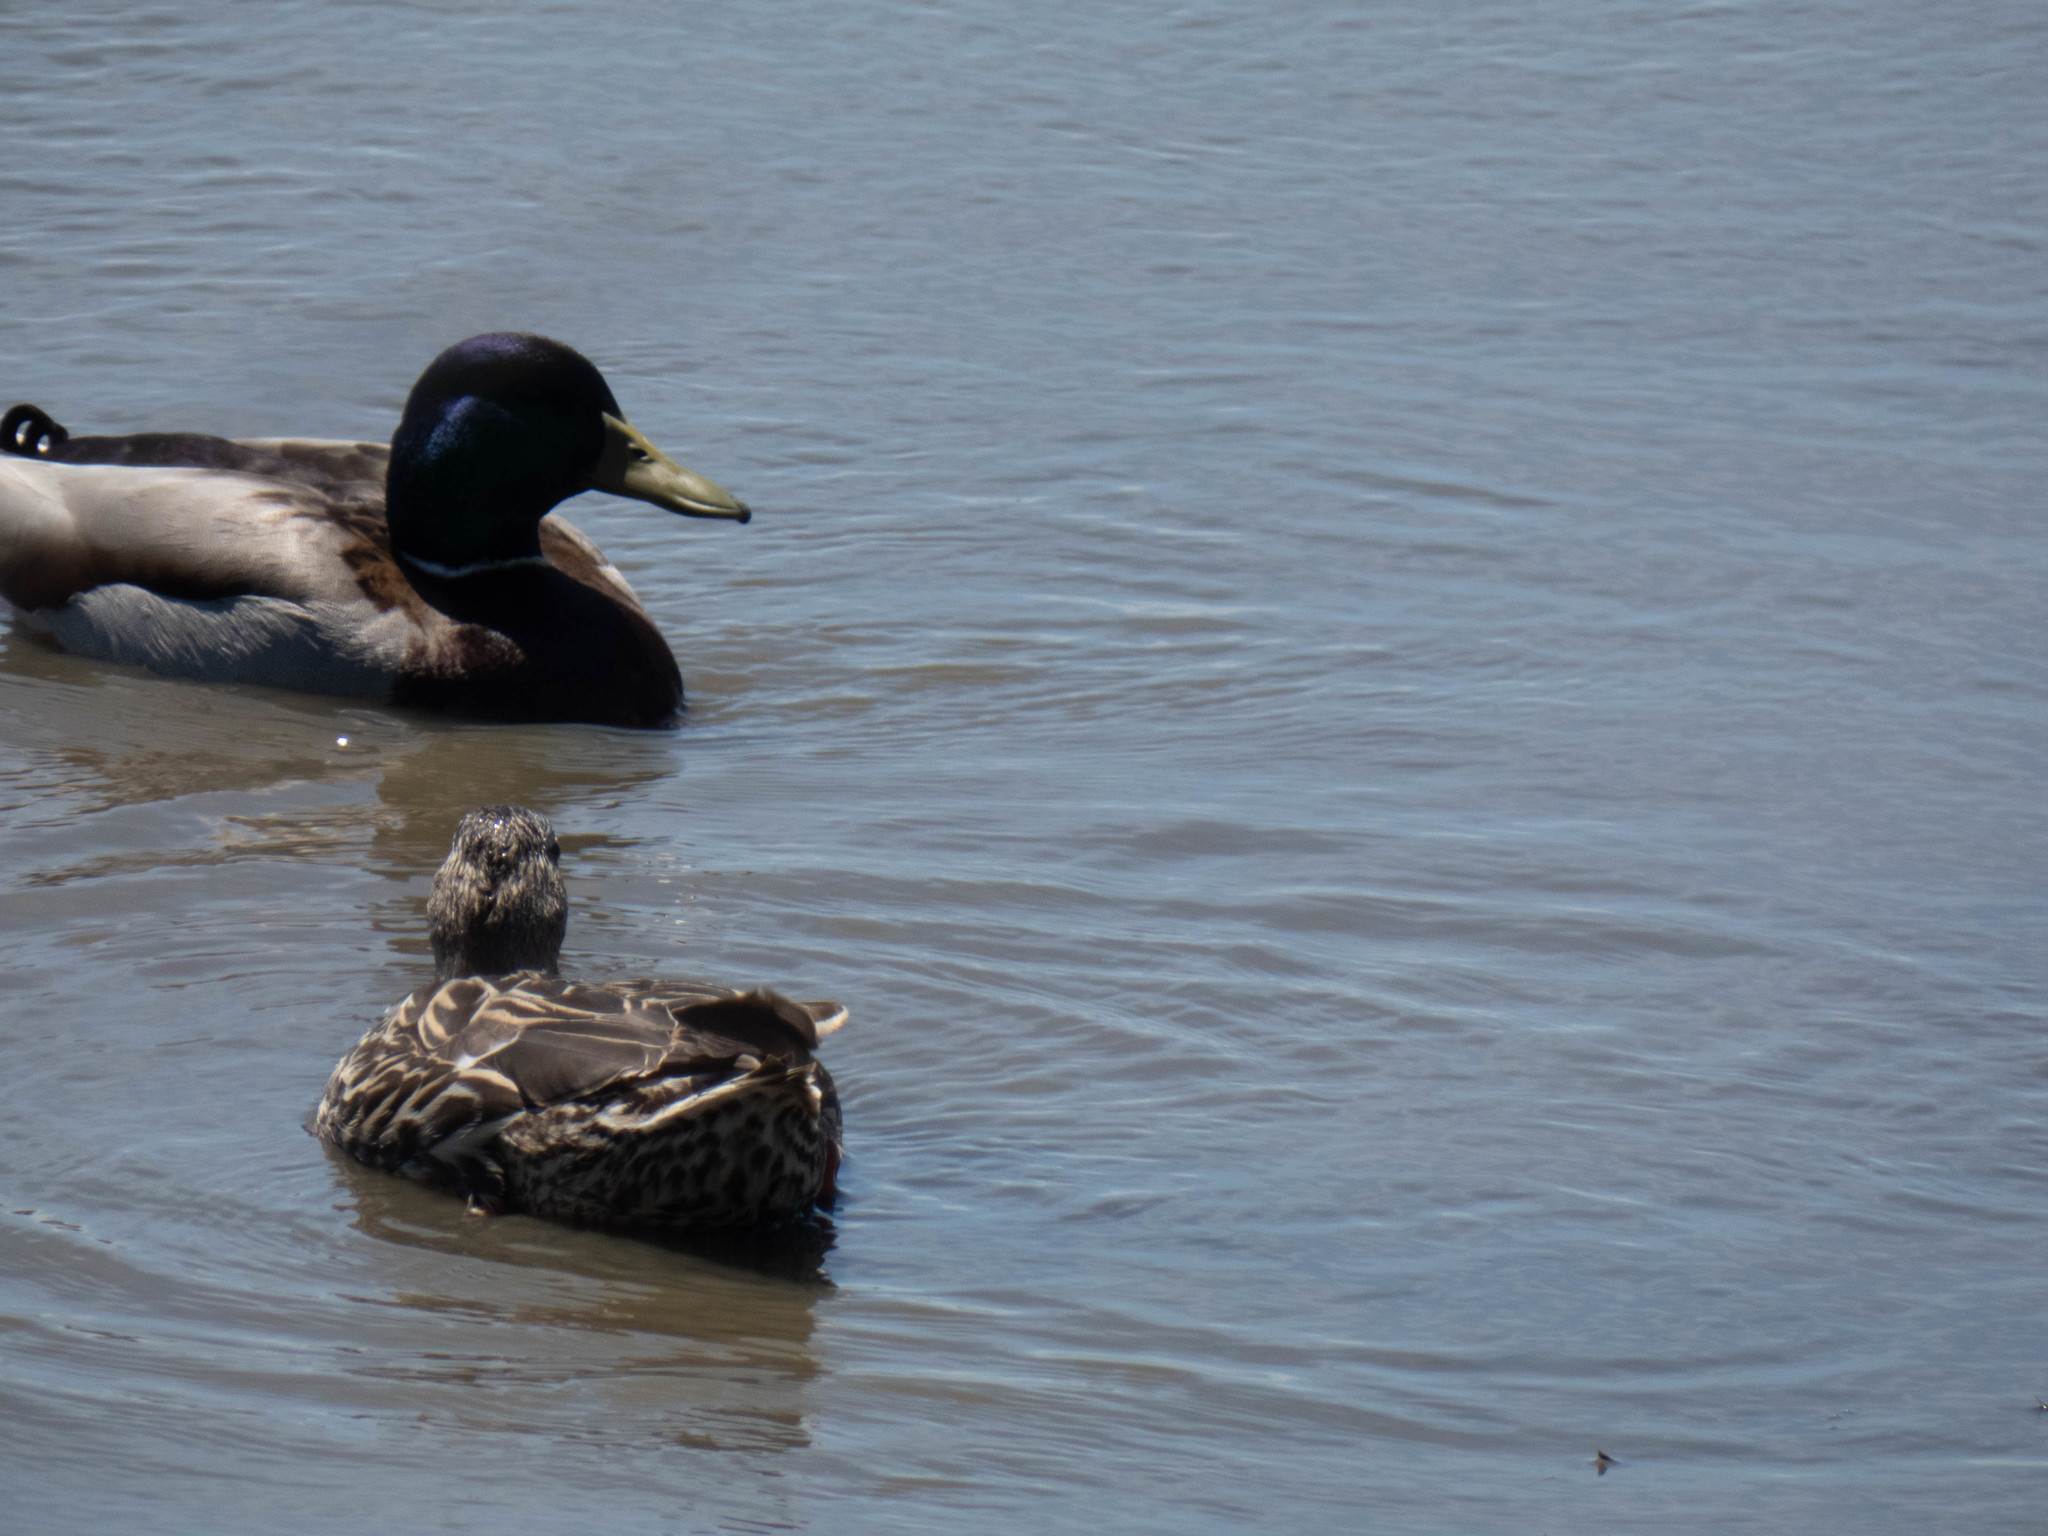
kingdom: Animalia
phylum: Chordata
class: Aves
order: Anseriformes
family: Anatidae
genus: Anas
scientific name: Anas platyrhynchos
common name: Mallard
